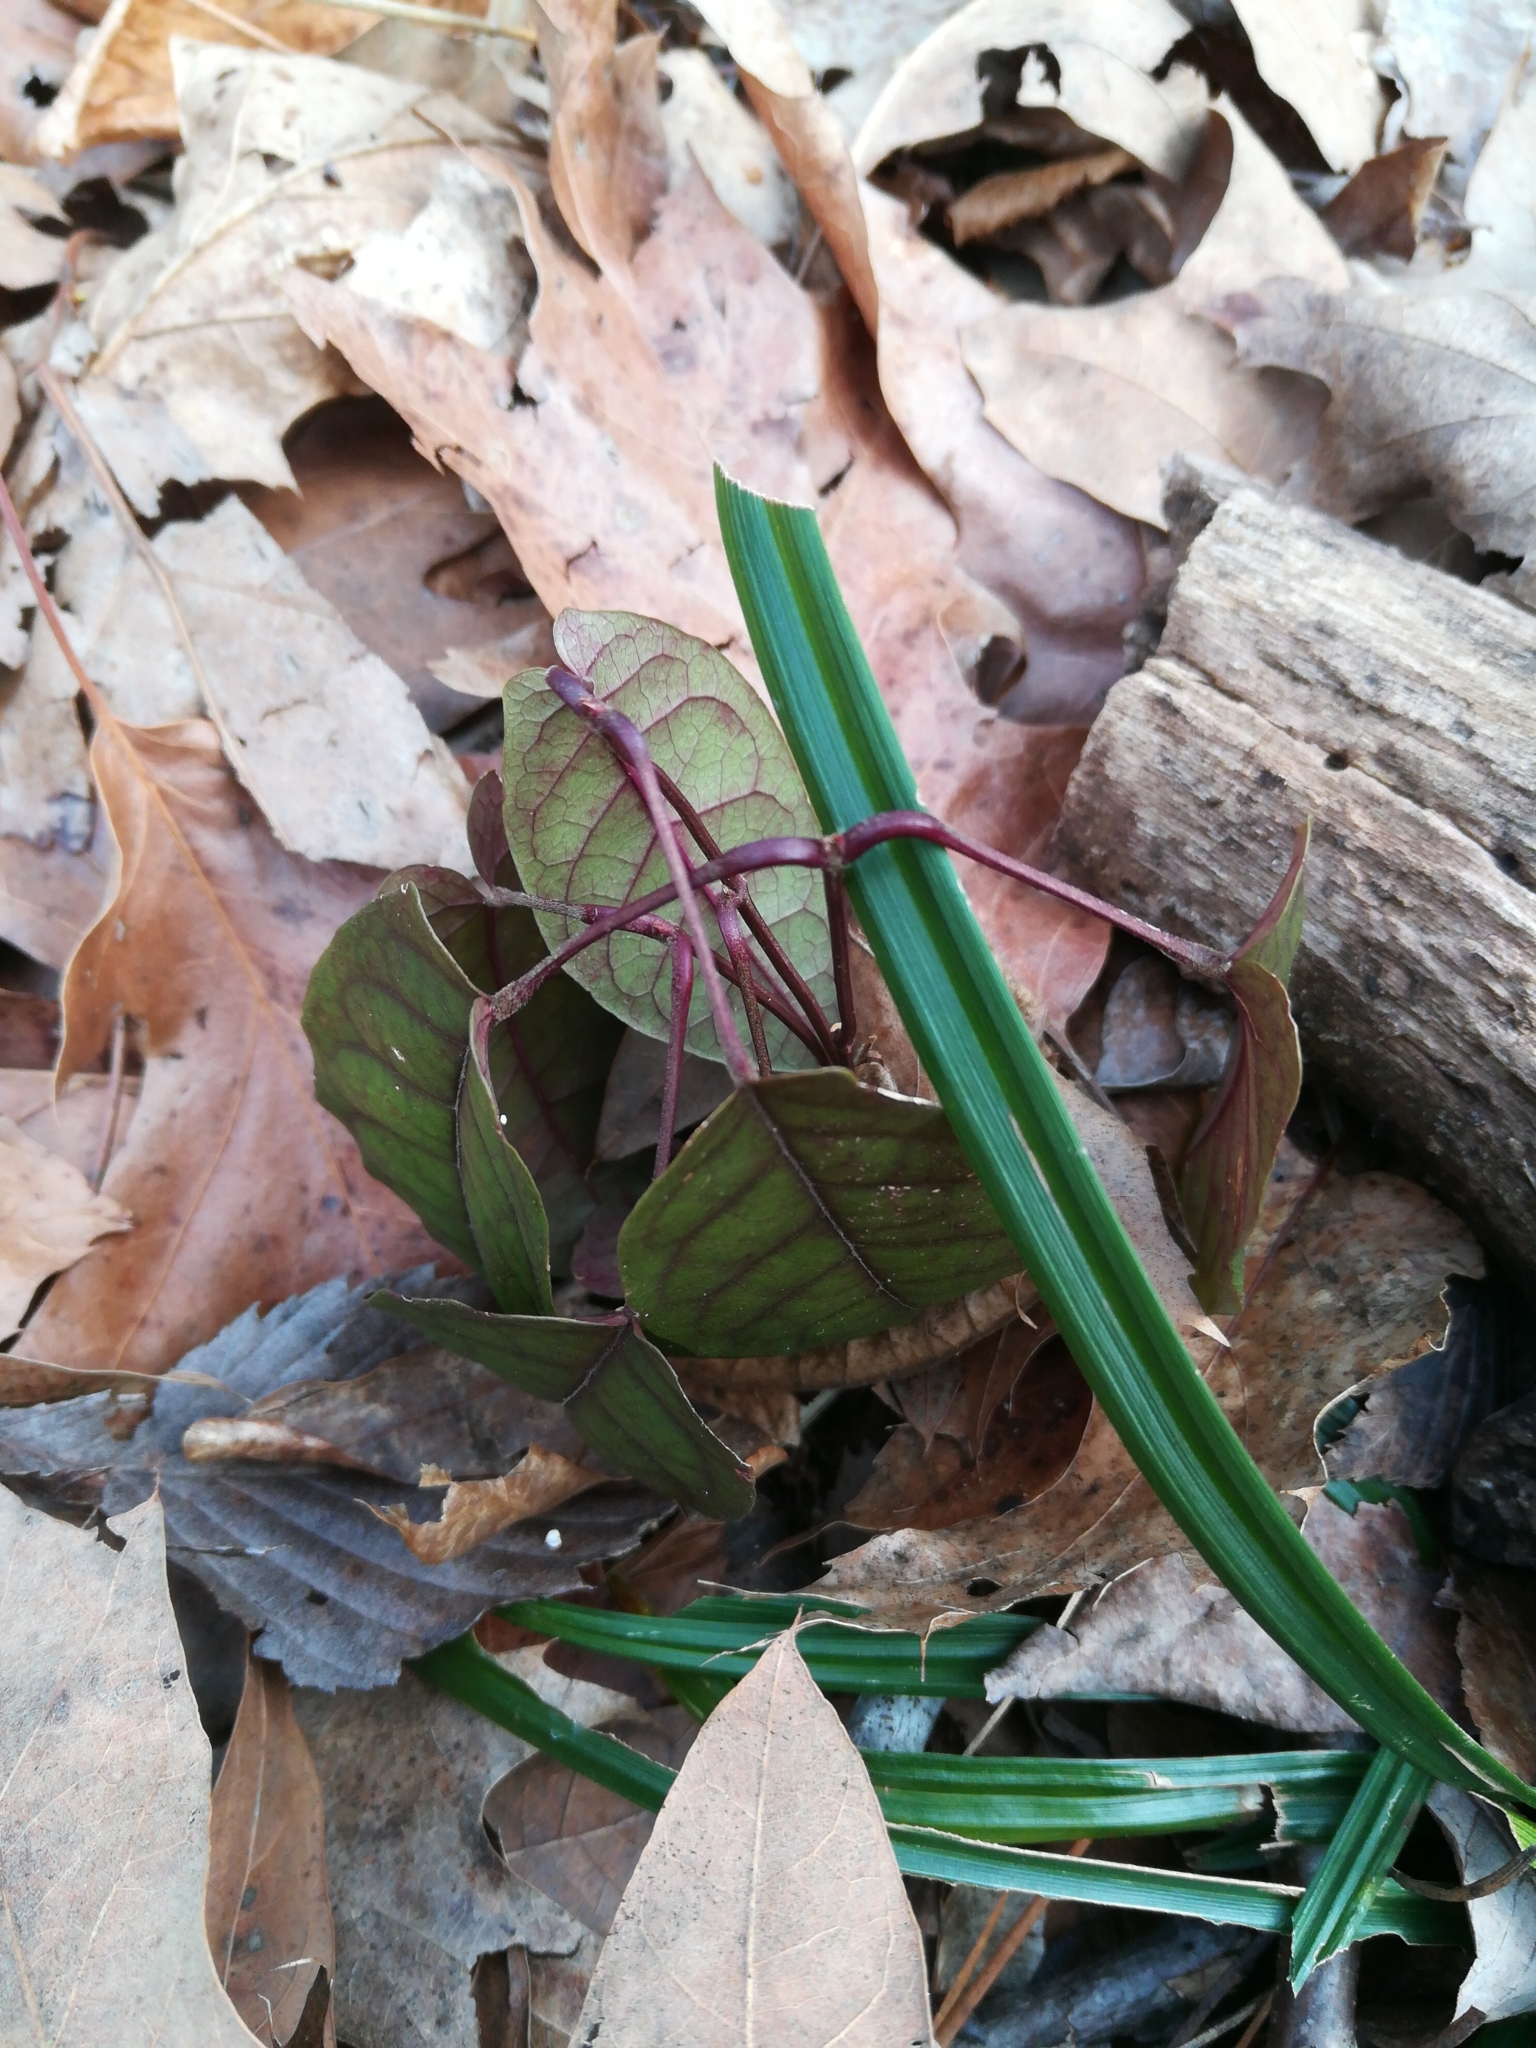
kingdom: Plantae
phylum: Tracheophyta
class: Magnoliopsida
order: Lamiales
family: Bignoniaceae
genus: Bignonia
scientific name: Bignonia capreolata
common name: Crossvine
